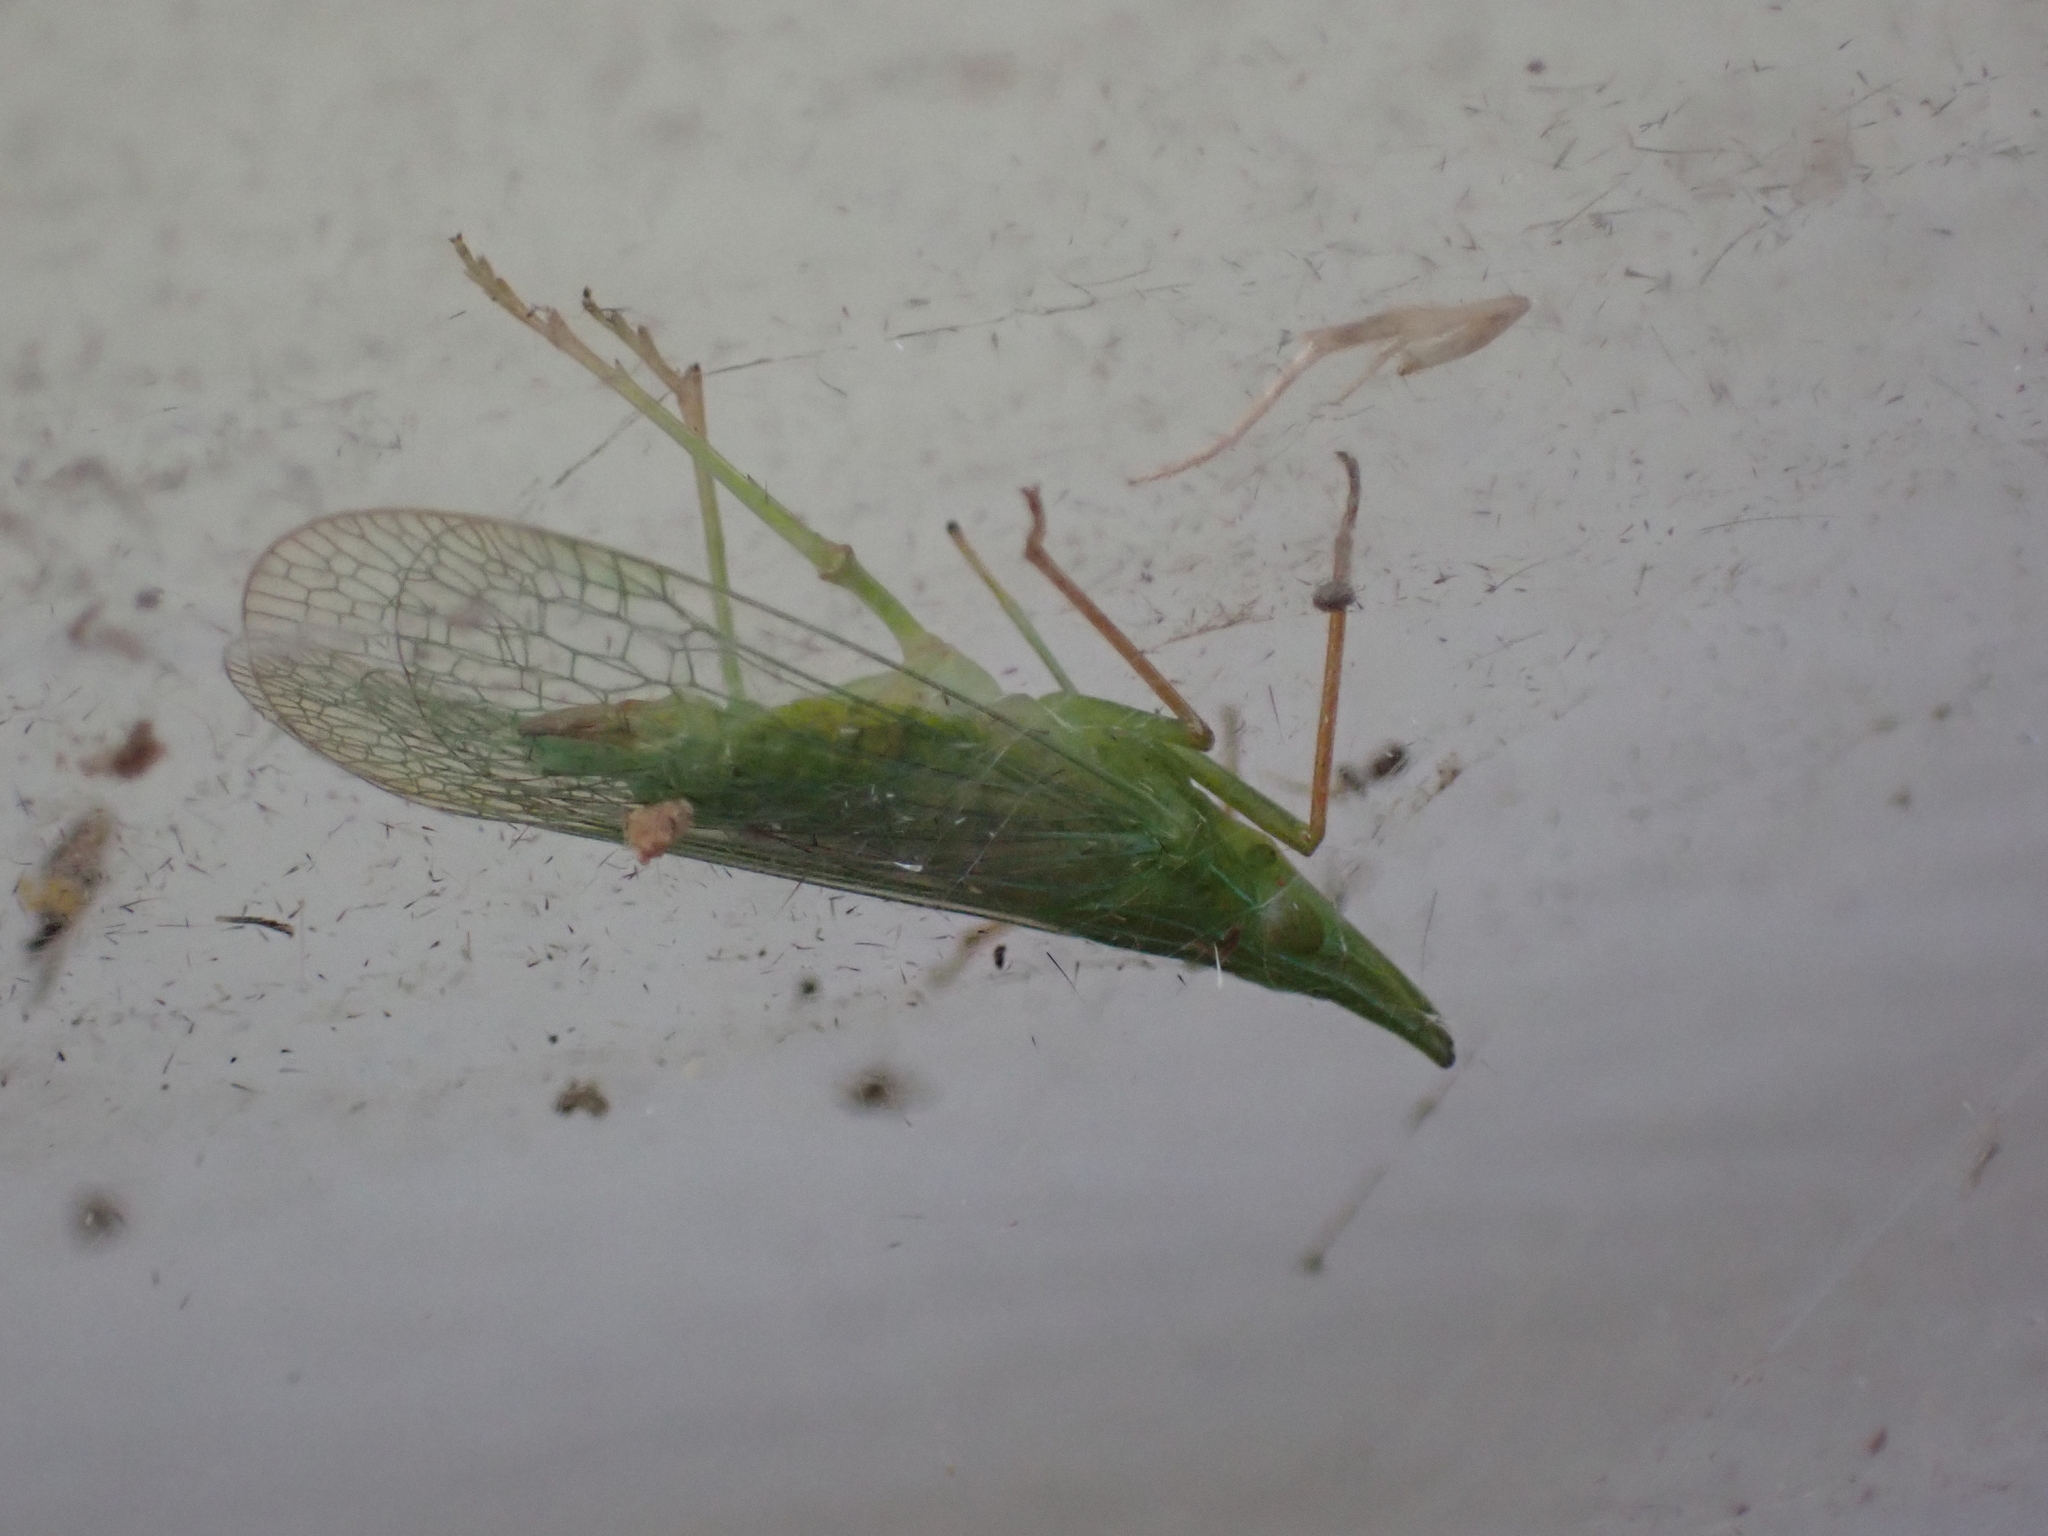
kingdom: Animalia
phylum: Arthropoda
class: Insecta
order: Hemiptera
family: Dictyopharidae
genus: Rhynchomitra
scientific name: Rhynchomitra microrhina
